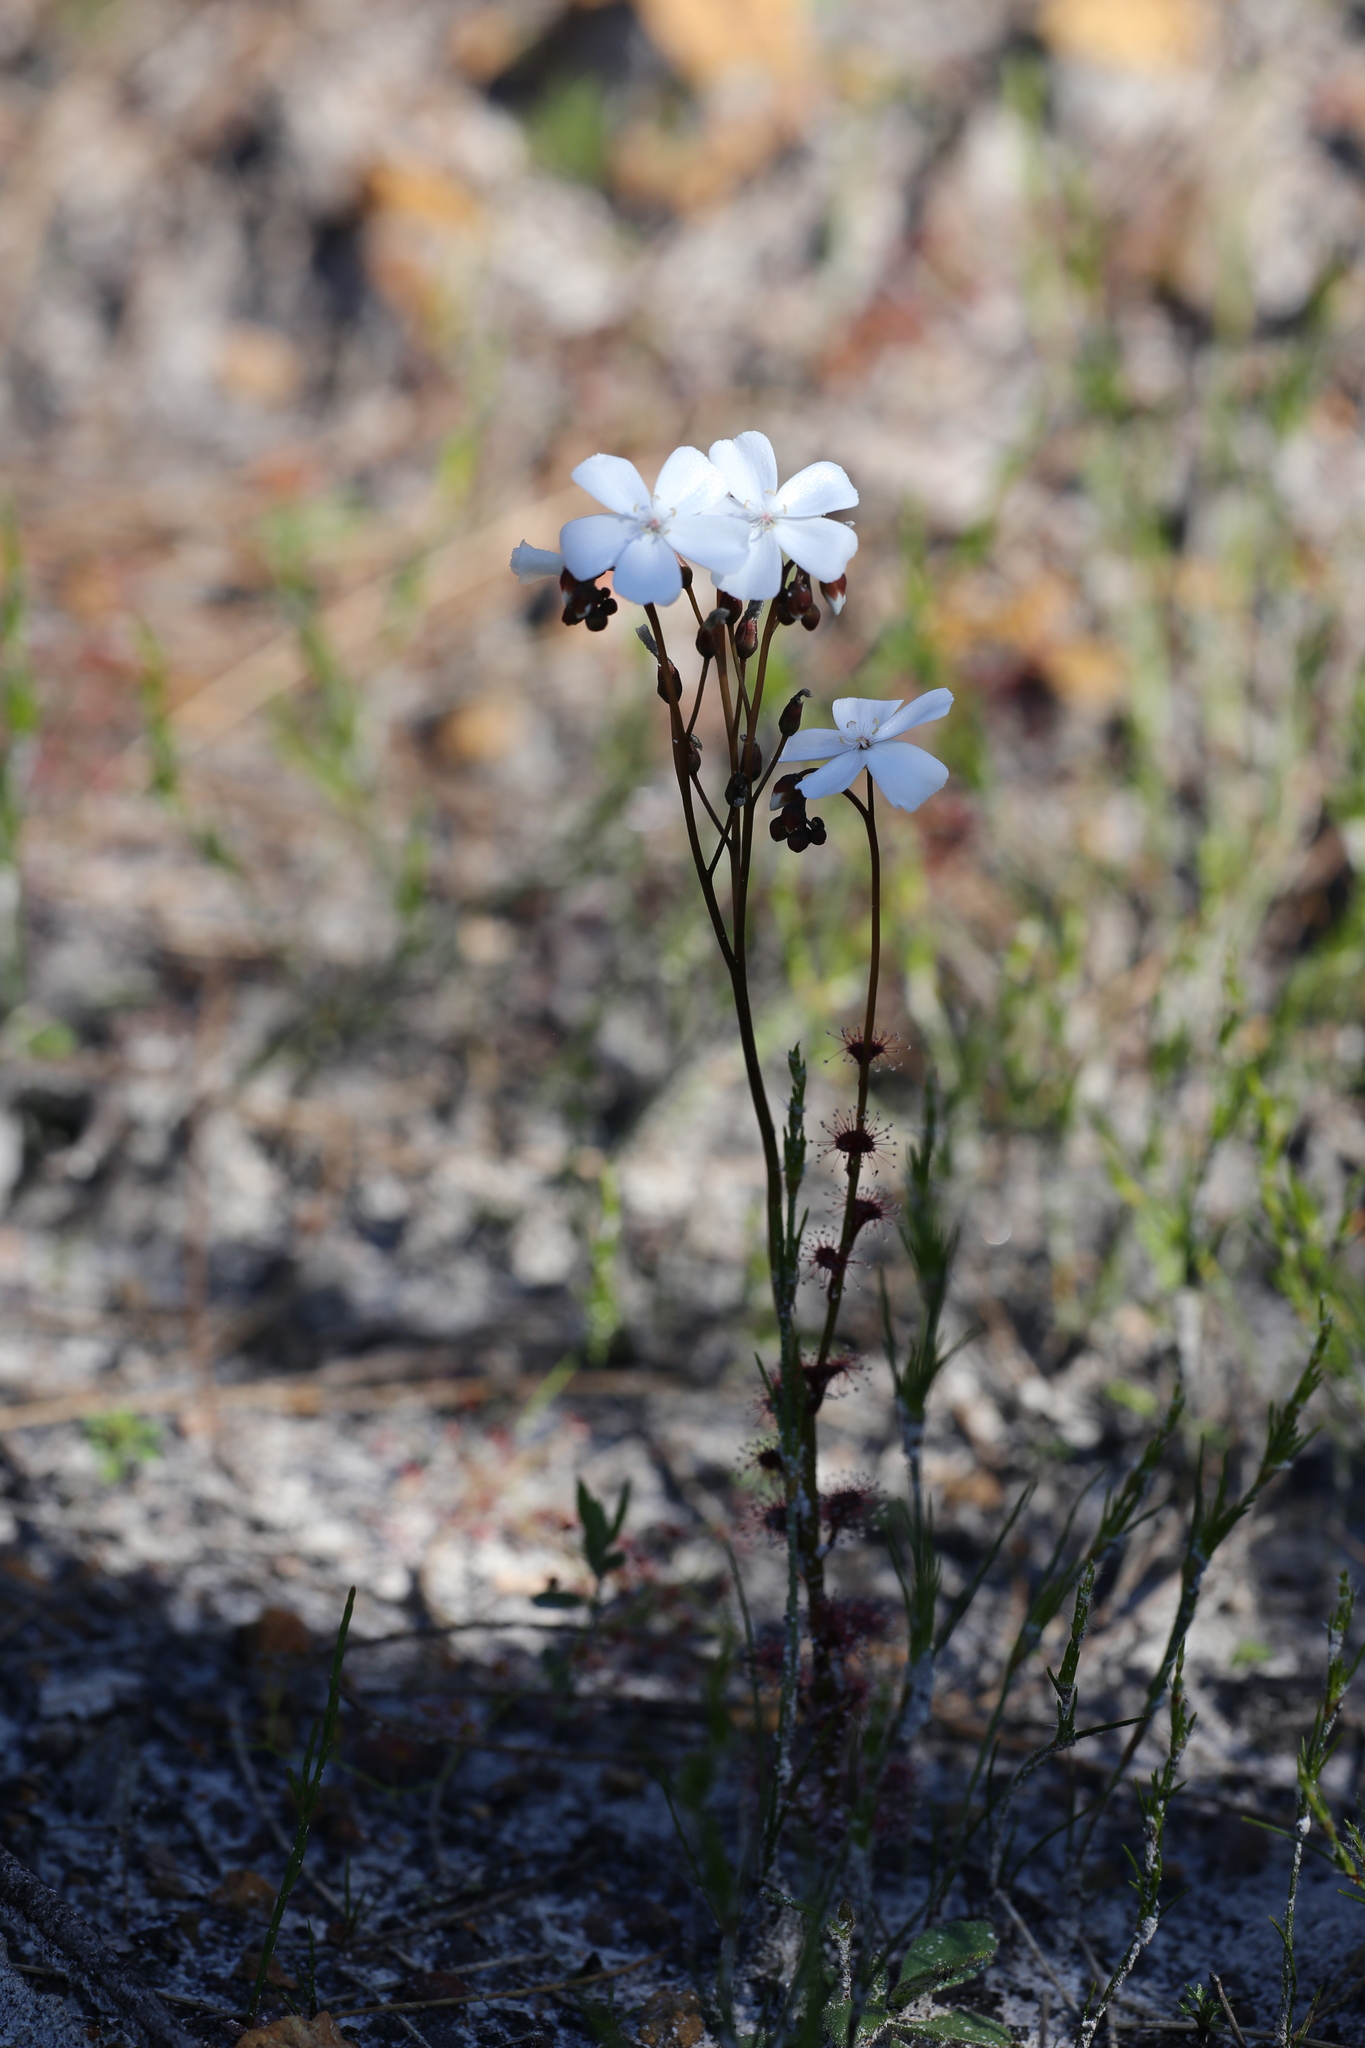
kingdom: Plantae
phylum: Tracheophyta
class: Magnoliopsida
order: Caryophyllales
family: Droseraceae
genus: Drosera
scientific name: Drosera platypoda
